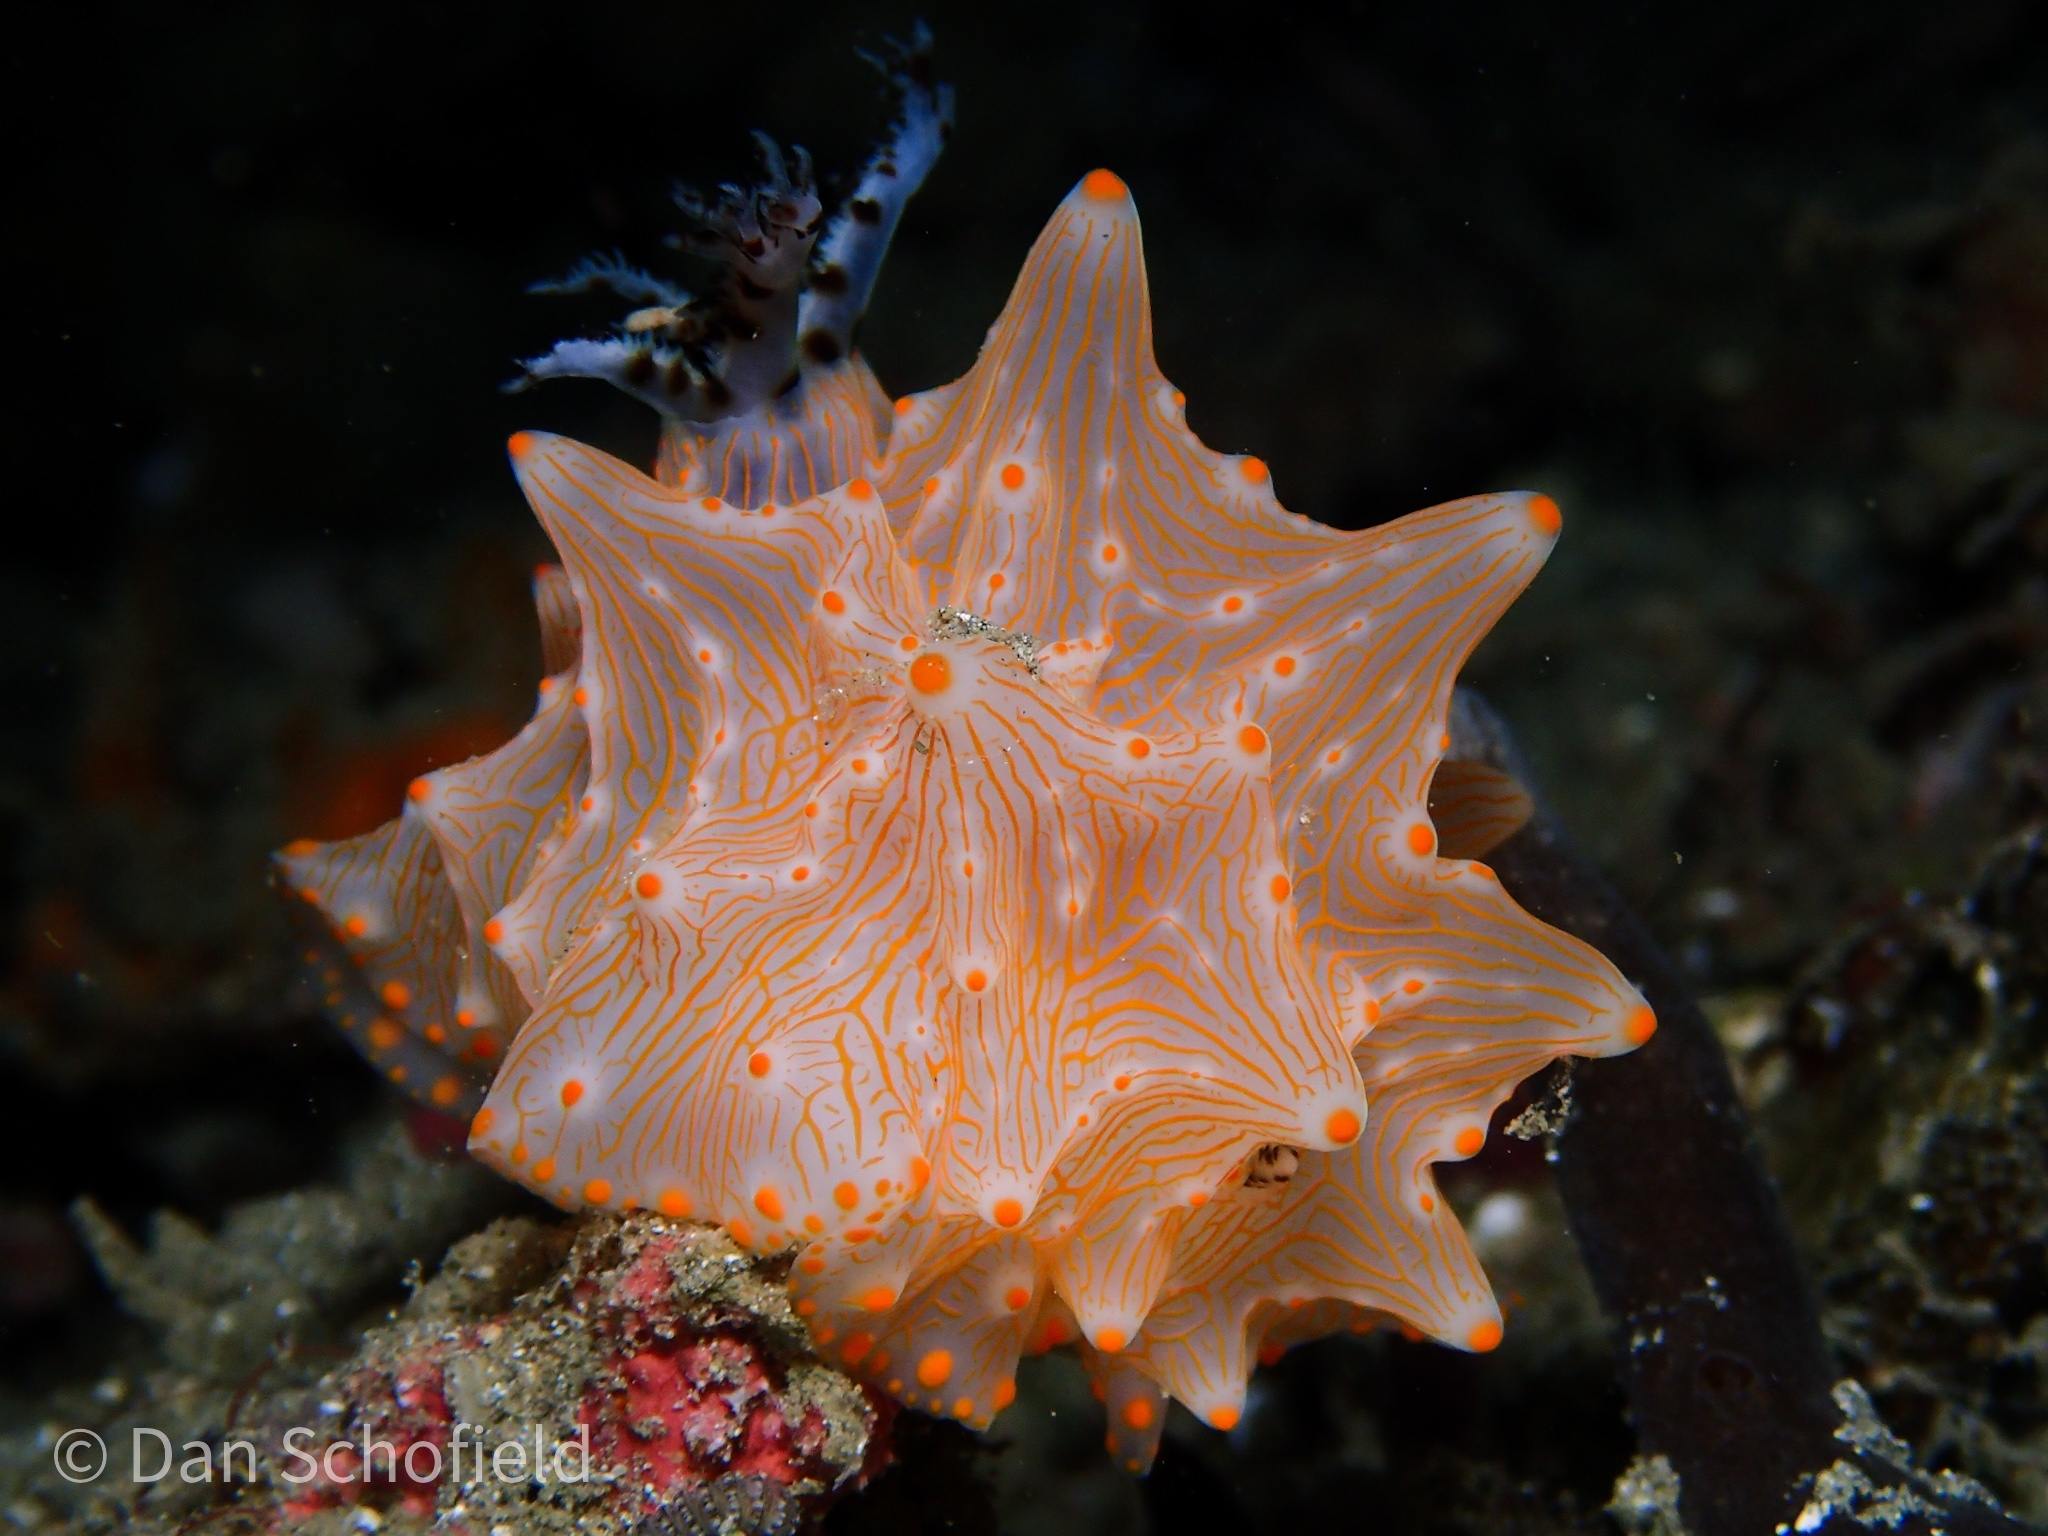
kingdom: Animalia
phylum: Mollusca
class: Gastropoda
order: Nudibranchia
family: Discodorididae
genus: Halgerda
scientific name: Halgerda batangas
